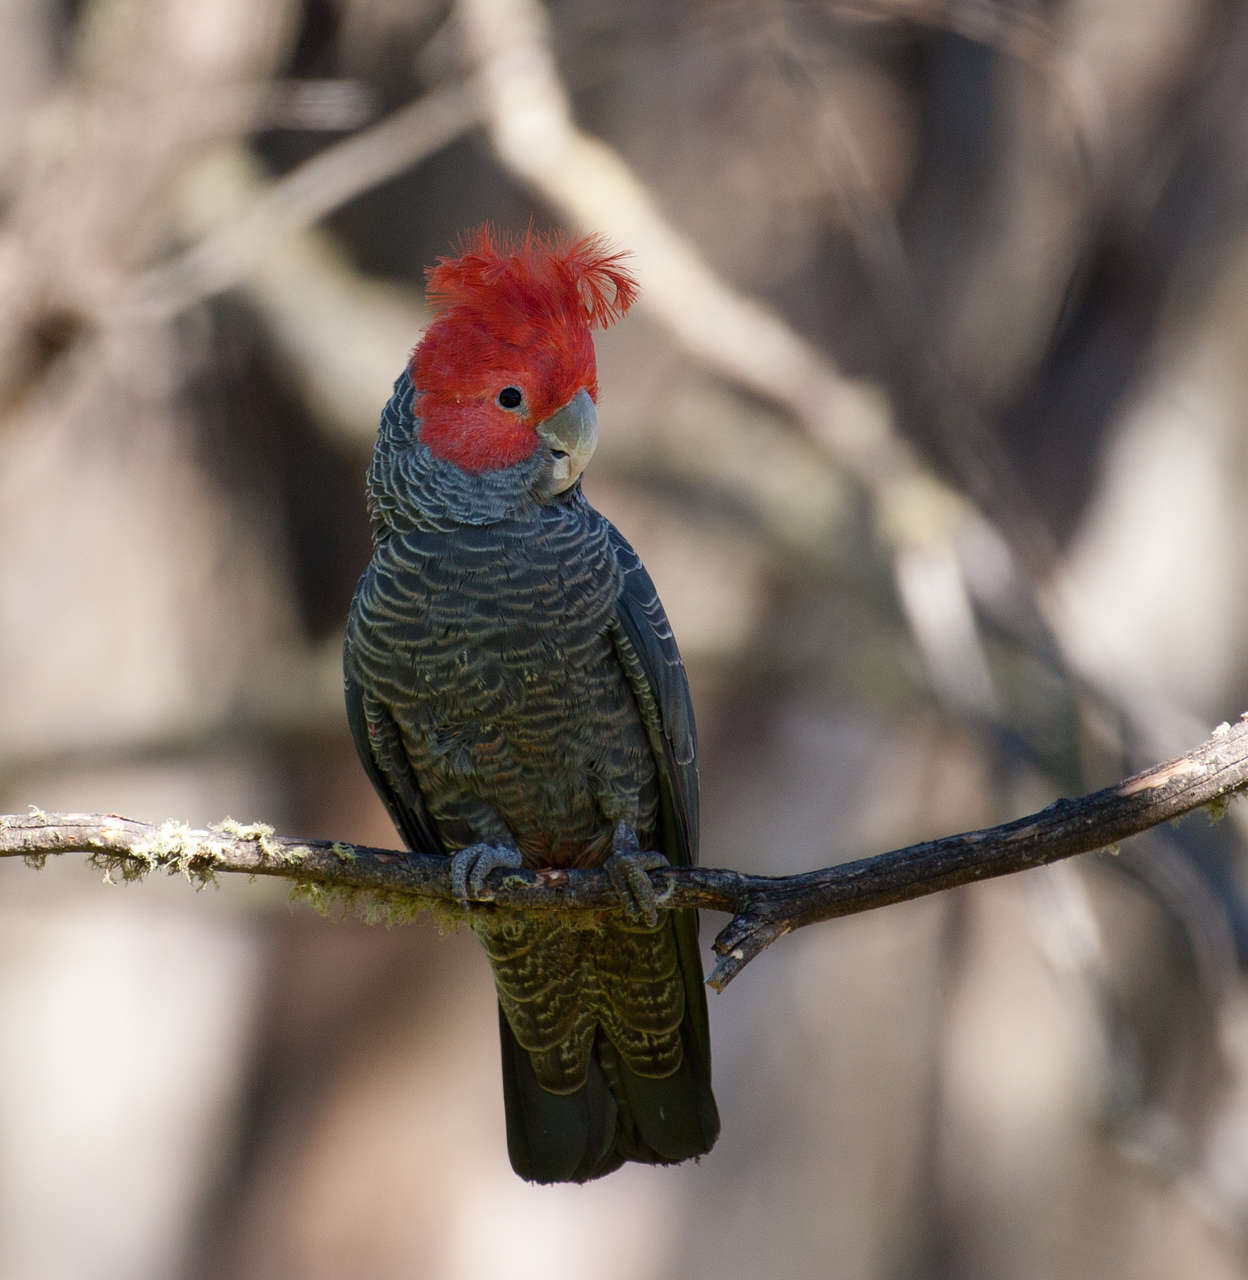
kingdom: Animalia
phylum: Chordata
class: Aves
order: Psittaciformes
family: Psittacidae
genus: Callocephalon
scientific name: Callocephalon fimbriatum
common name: Gang-gang cockatoo
